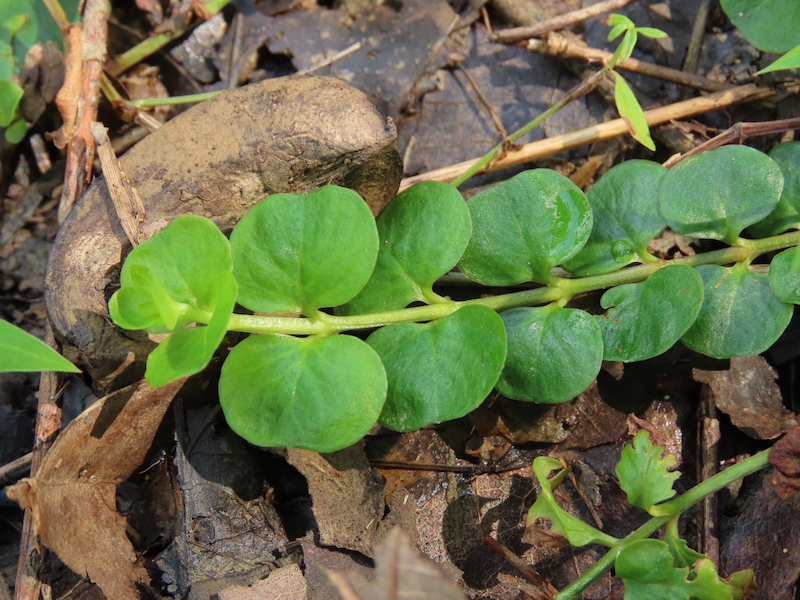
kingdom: Plantae
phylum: Tracheophyta
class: Magnoliopsida
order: Ericales
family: Primulaceae
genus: Lysimachia
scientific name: Lysimachia nummularia
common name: Moneywort
